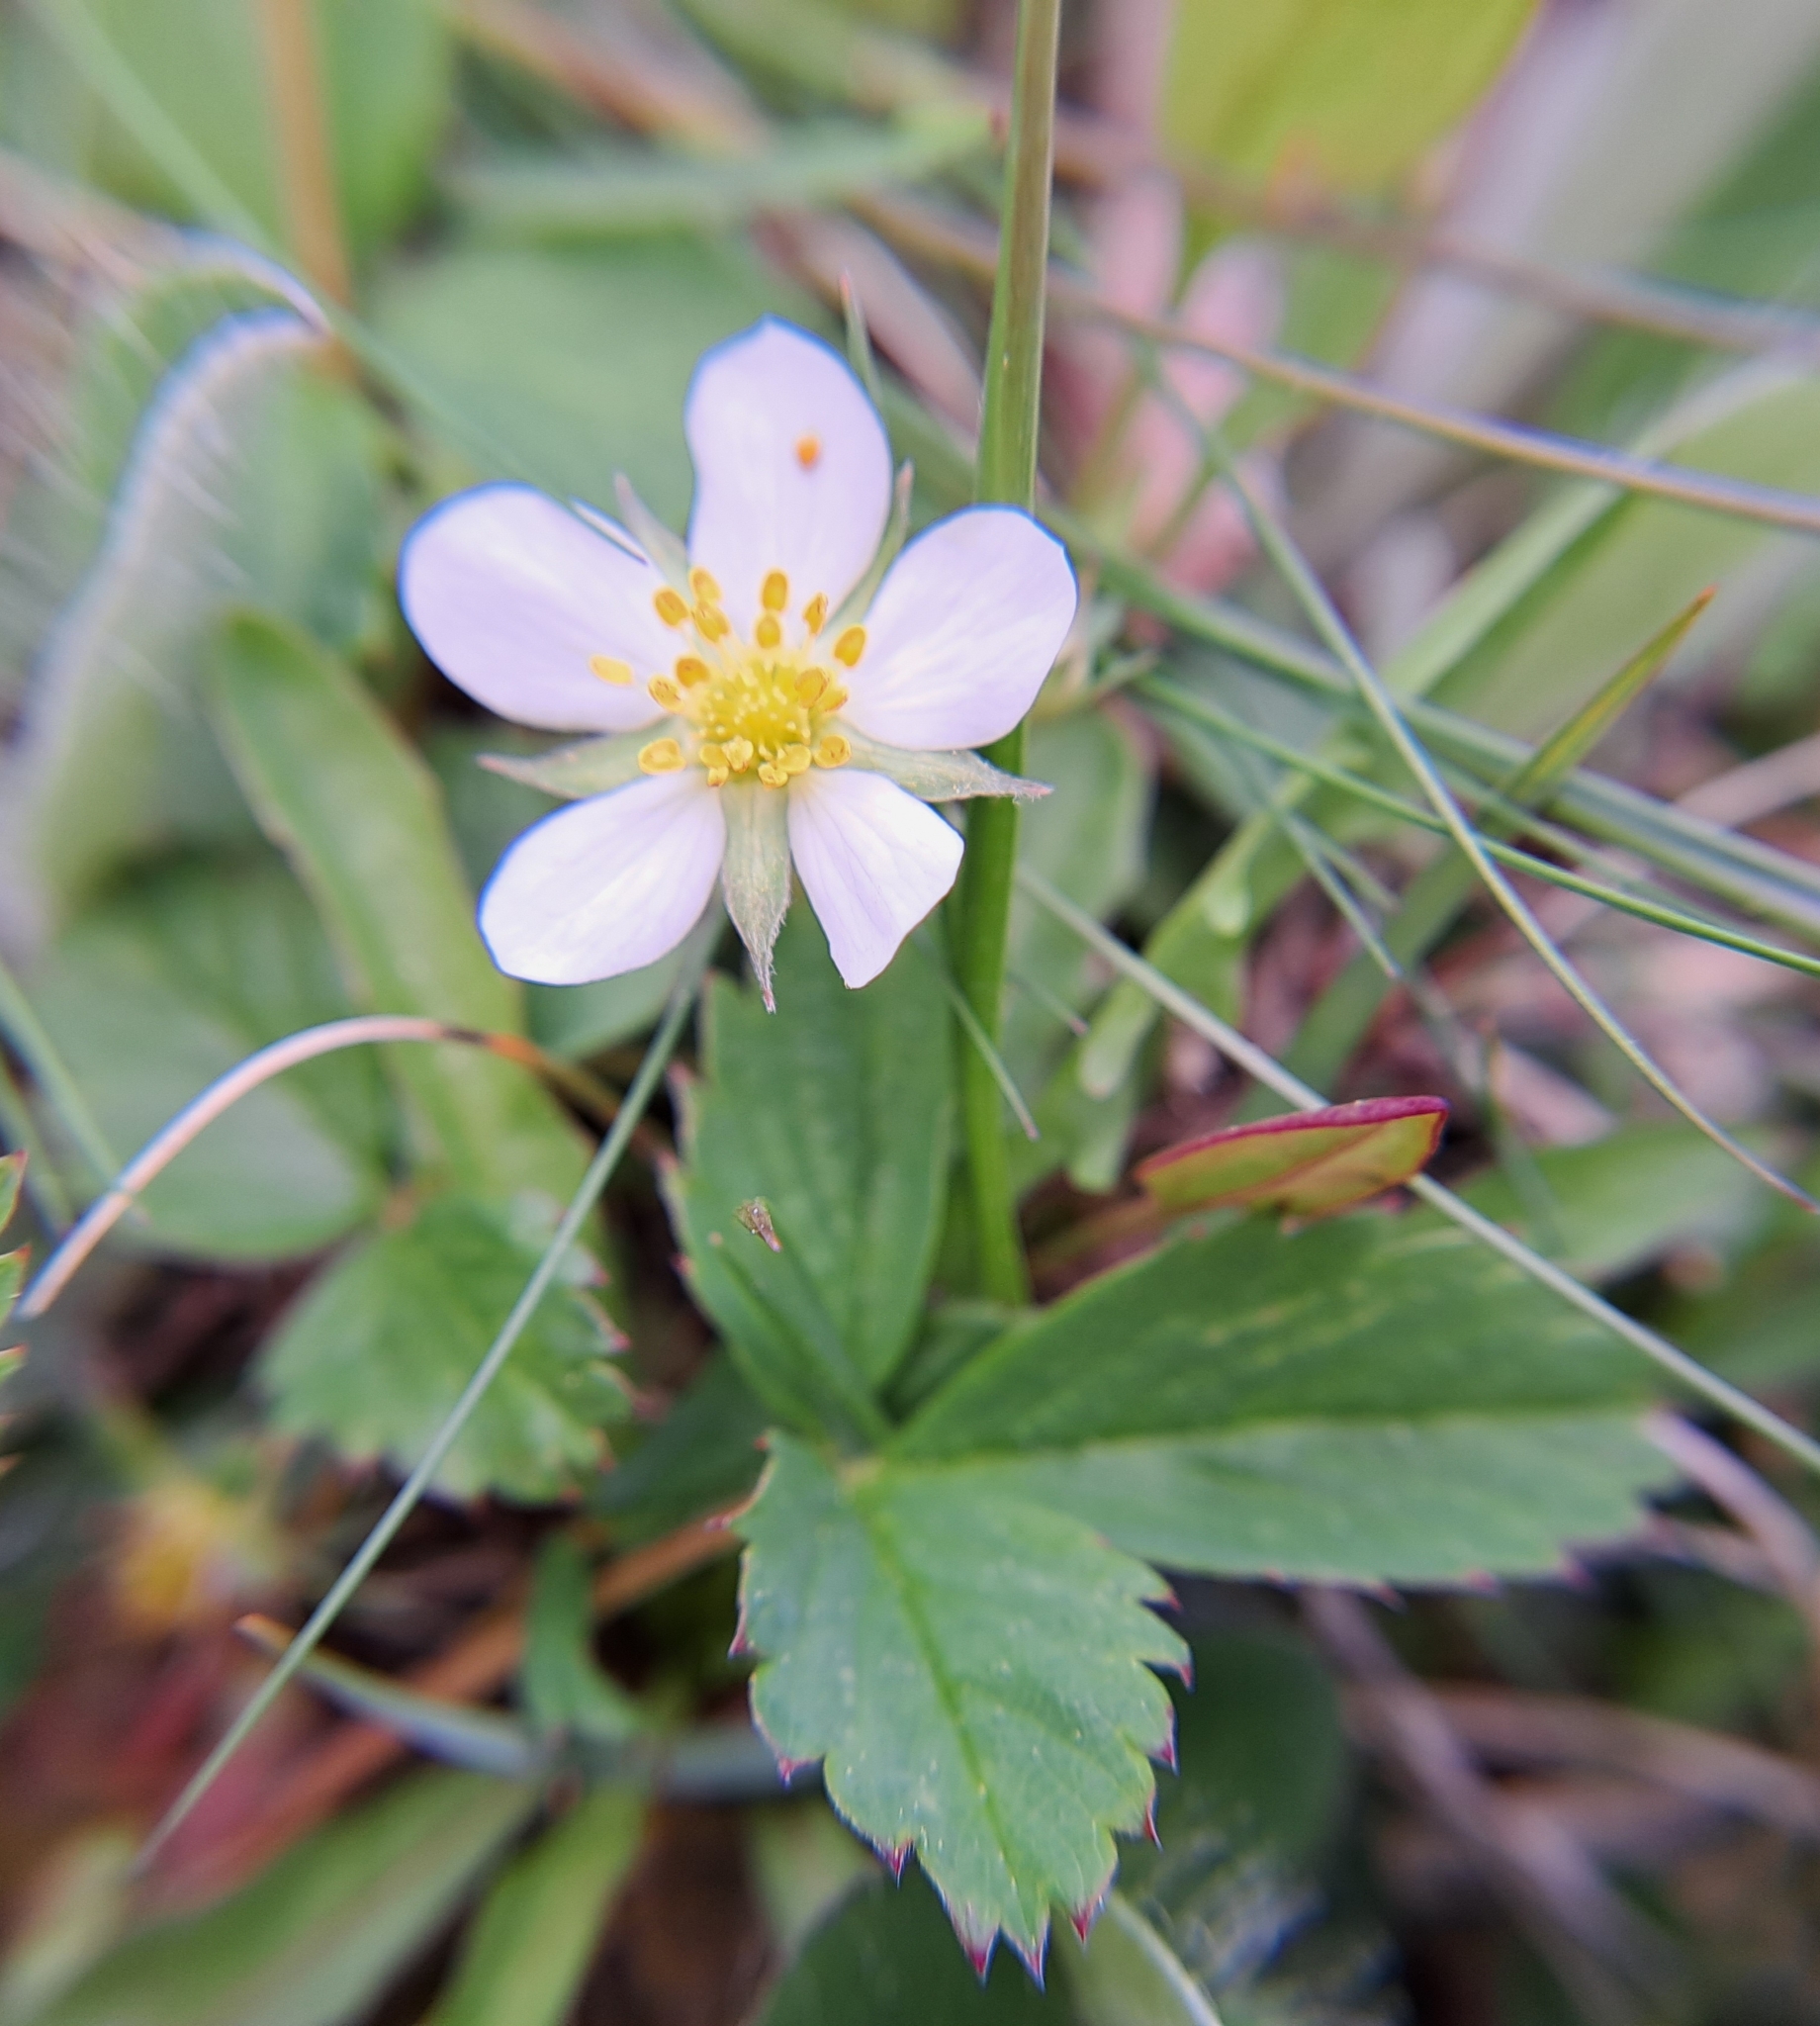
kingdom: Plantae
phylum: Tracheophyta
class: Magnoliopsida
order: Rosales
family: Rosaceae
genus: Fragaria
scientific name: Fragaria virginiana
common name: Thickleaved wild strawberry
